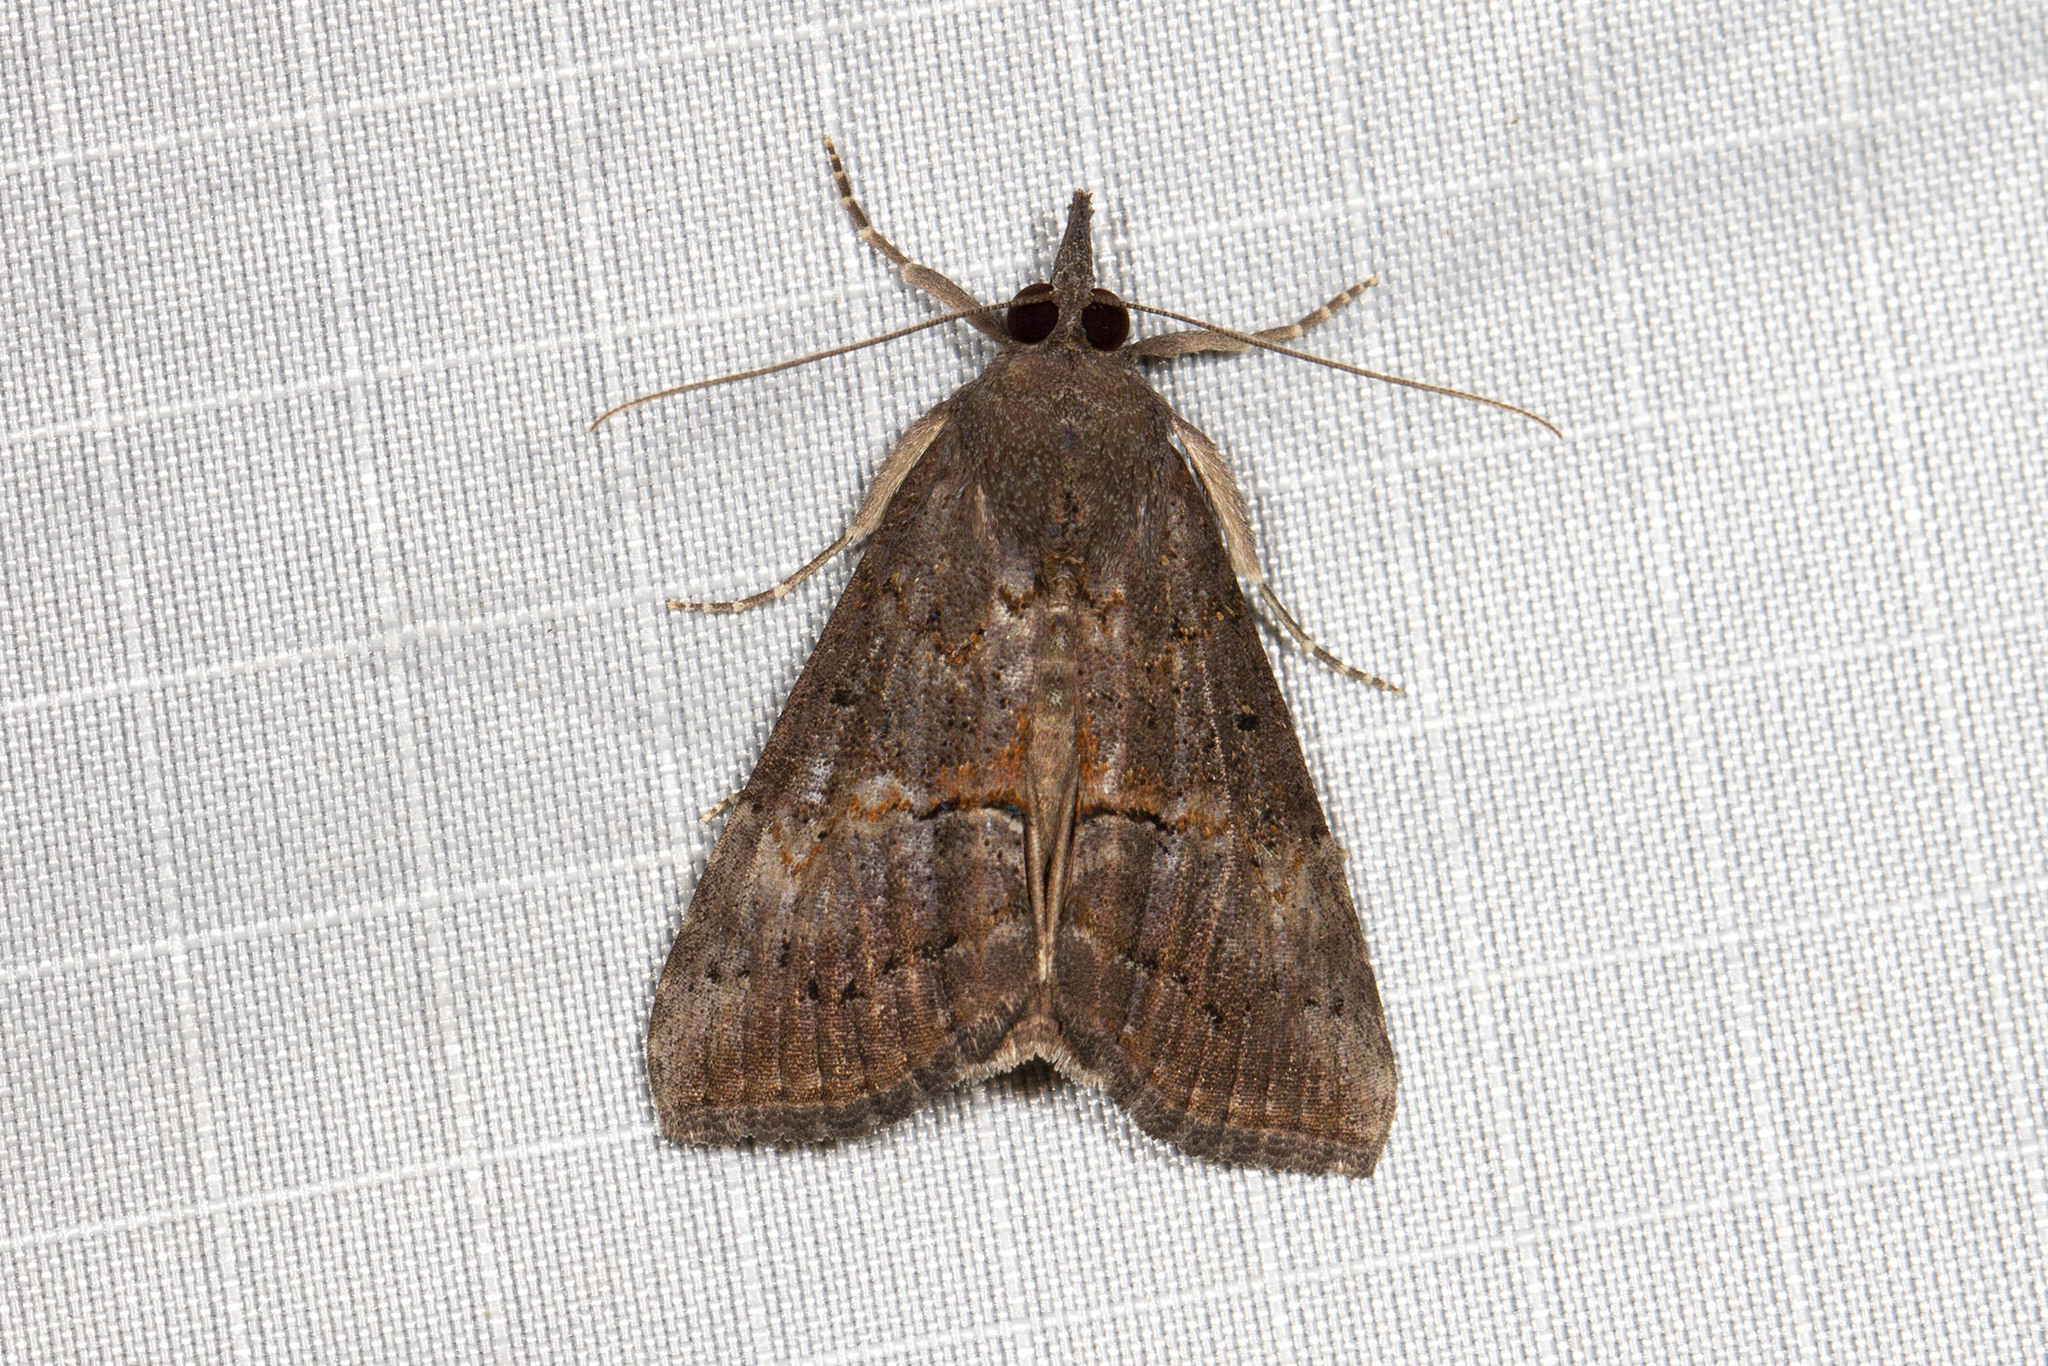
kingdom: Animalia
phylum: Arthropoda
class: Insecta
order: Lepidoptera
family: Erebidae
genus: Hypena
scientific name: Hypena scabra
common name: Green cloverworm
